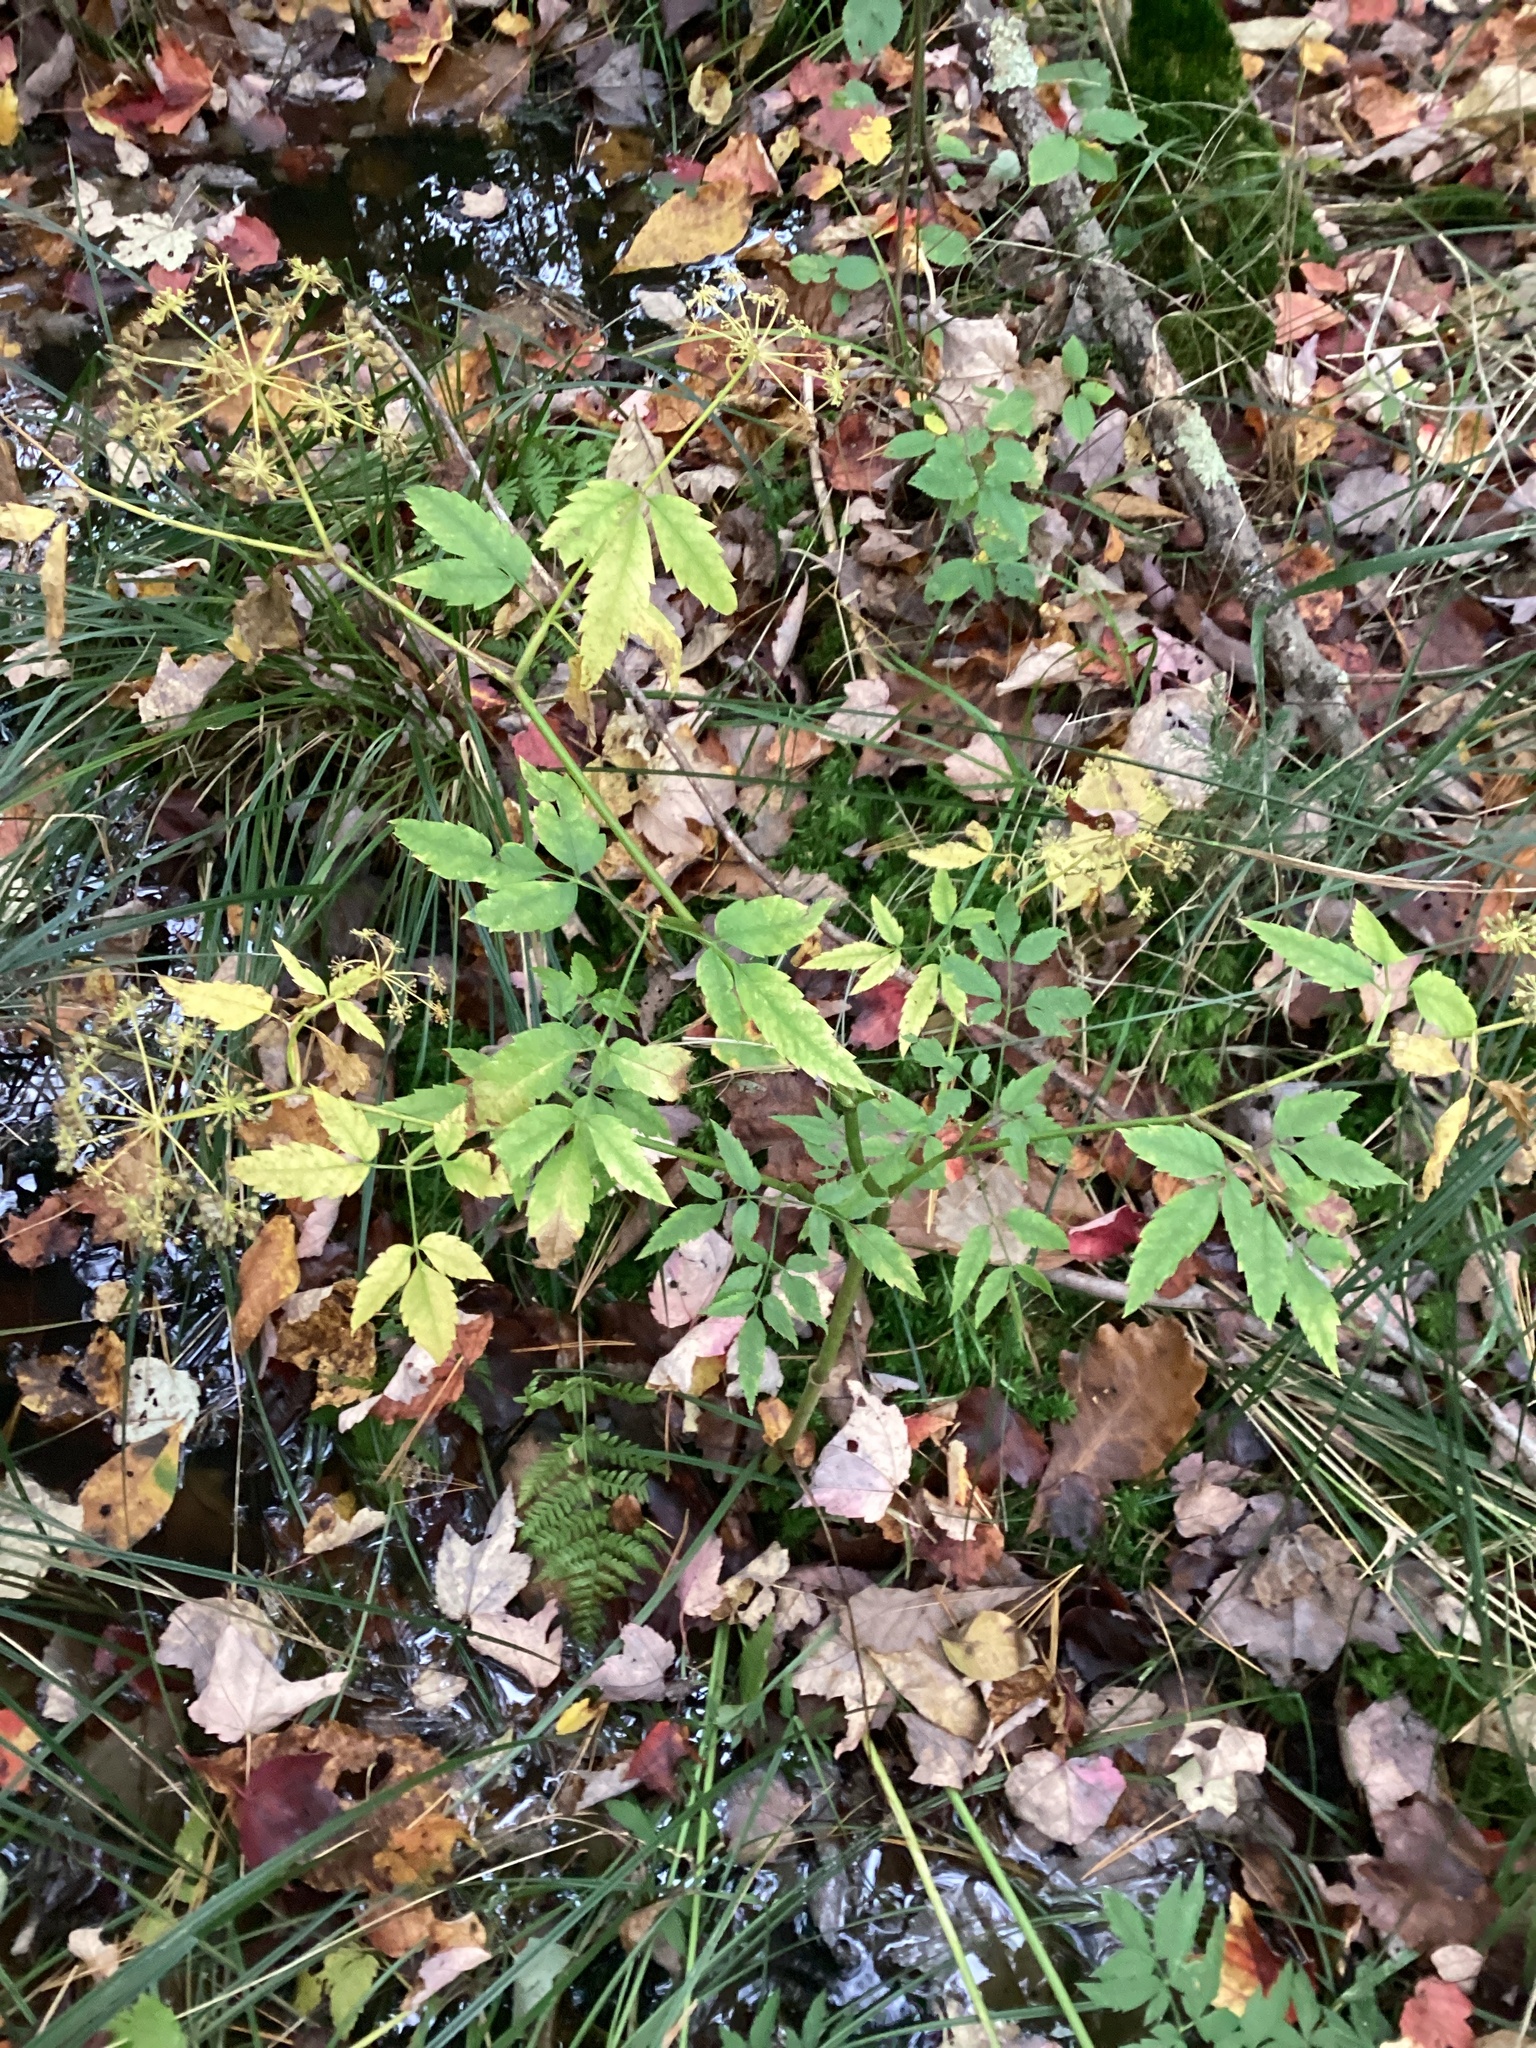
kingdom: Plantae
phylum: Tracheophyta
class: Magnoliopsida
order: Apiales
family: Apiaceae
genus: Cicuta
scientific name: Cicuta maculata
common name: Spotted cowbane
